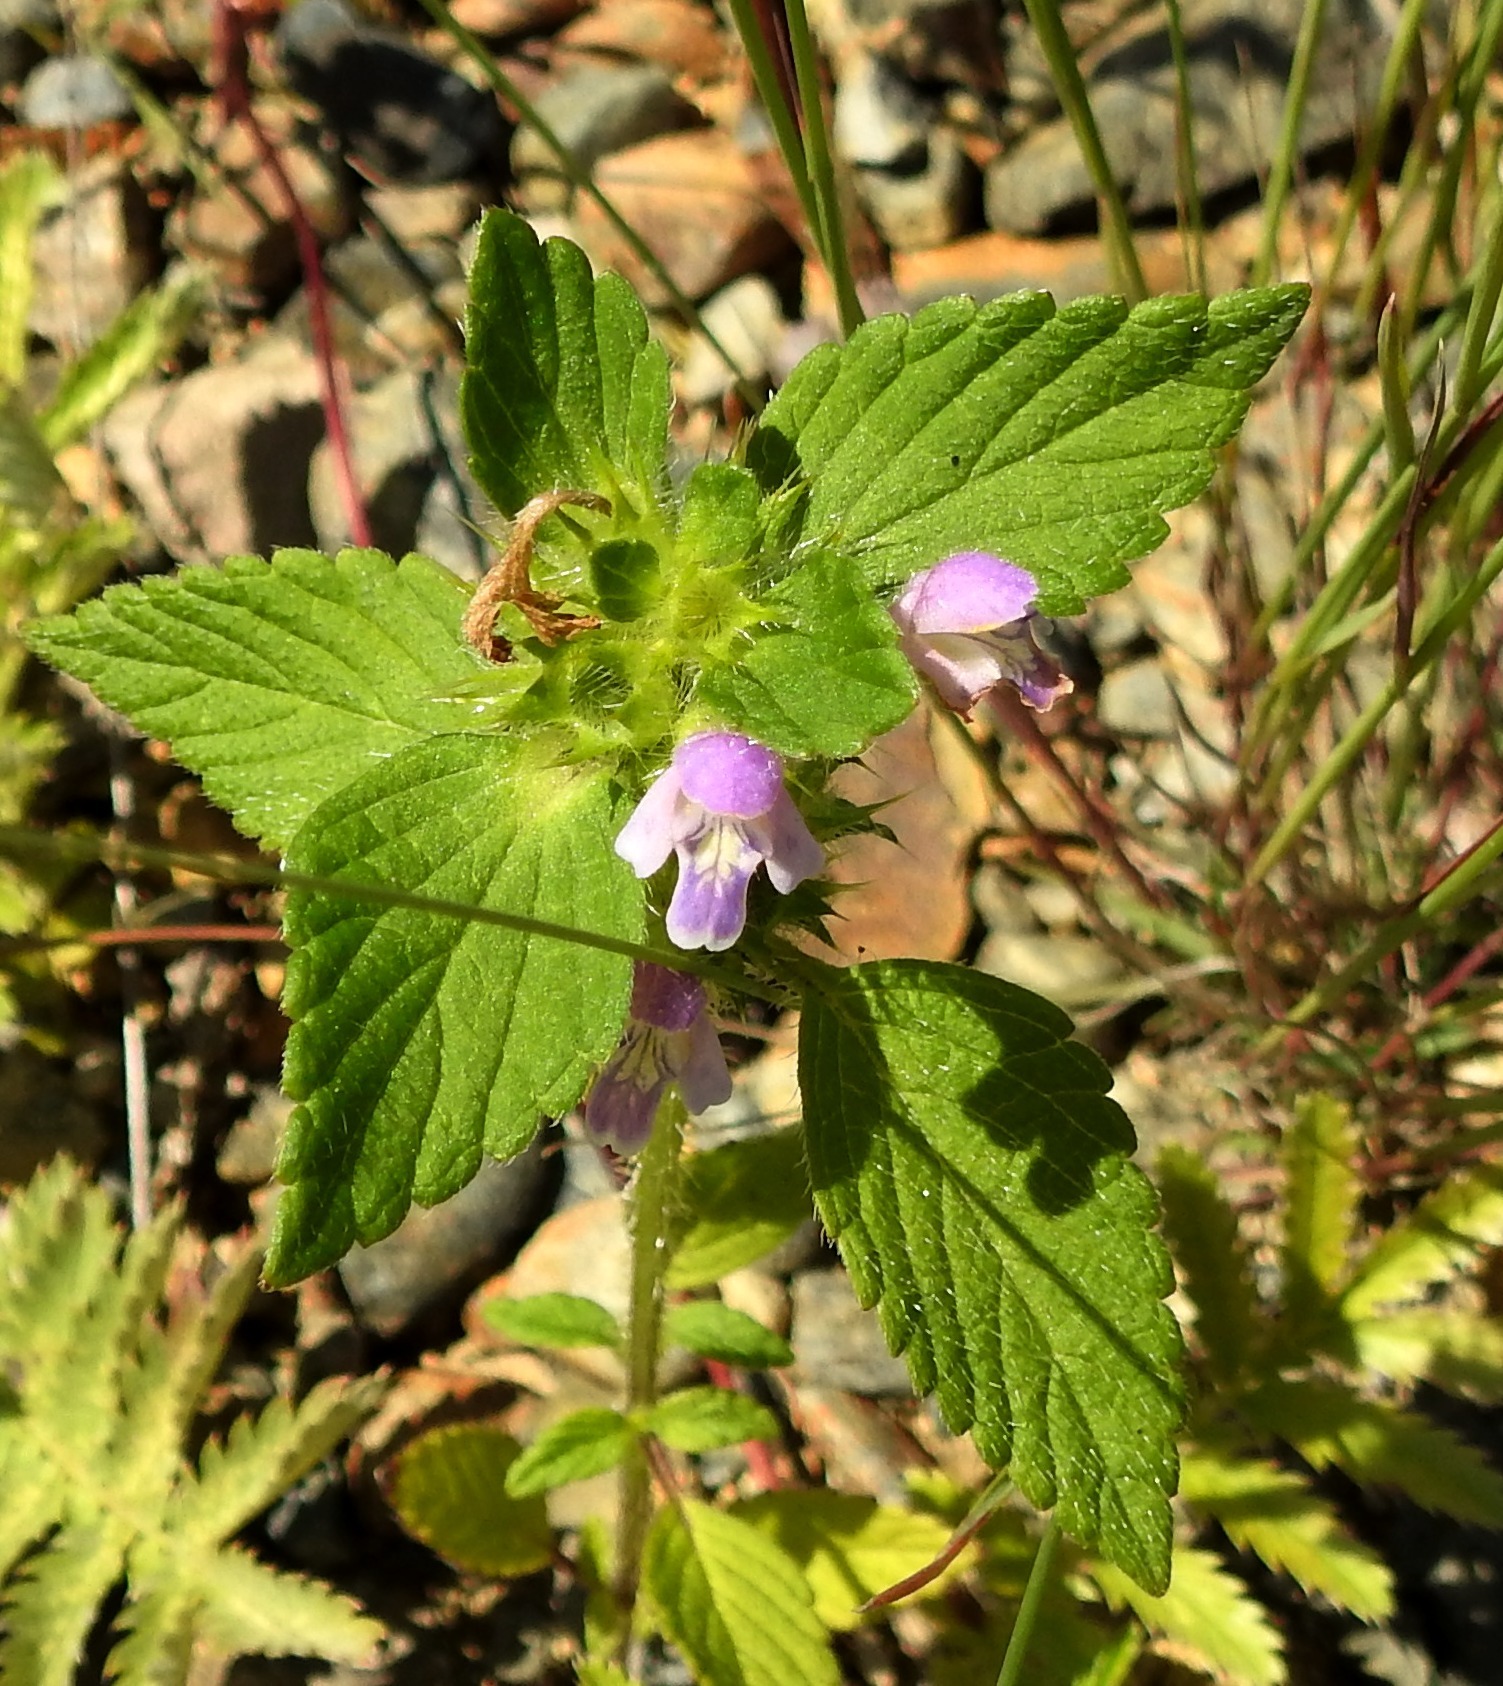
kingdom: Plantae
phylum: Tracheophyta
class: Magnoliopsida
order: Lamiales
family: Lamiaceae
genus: Galeopsis
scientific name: Galeopsis bifida
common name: Bifid hemp-nettle
